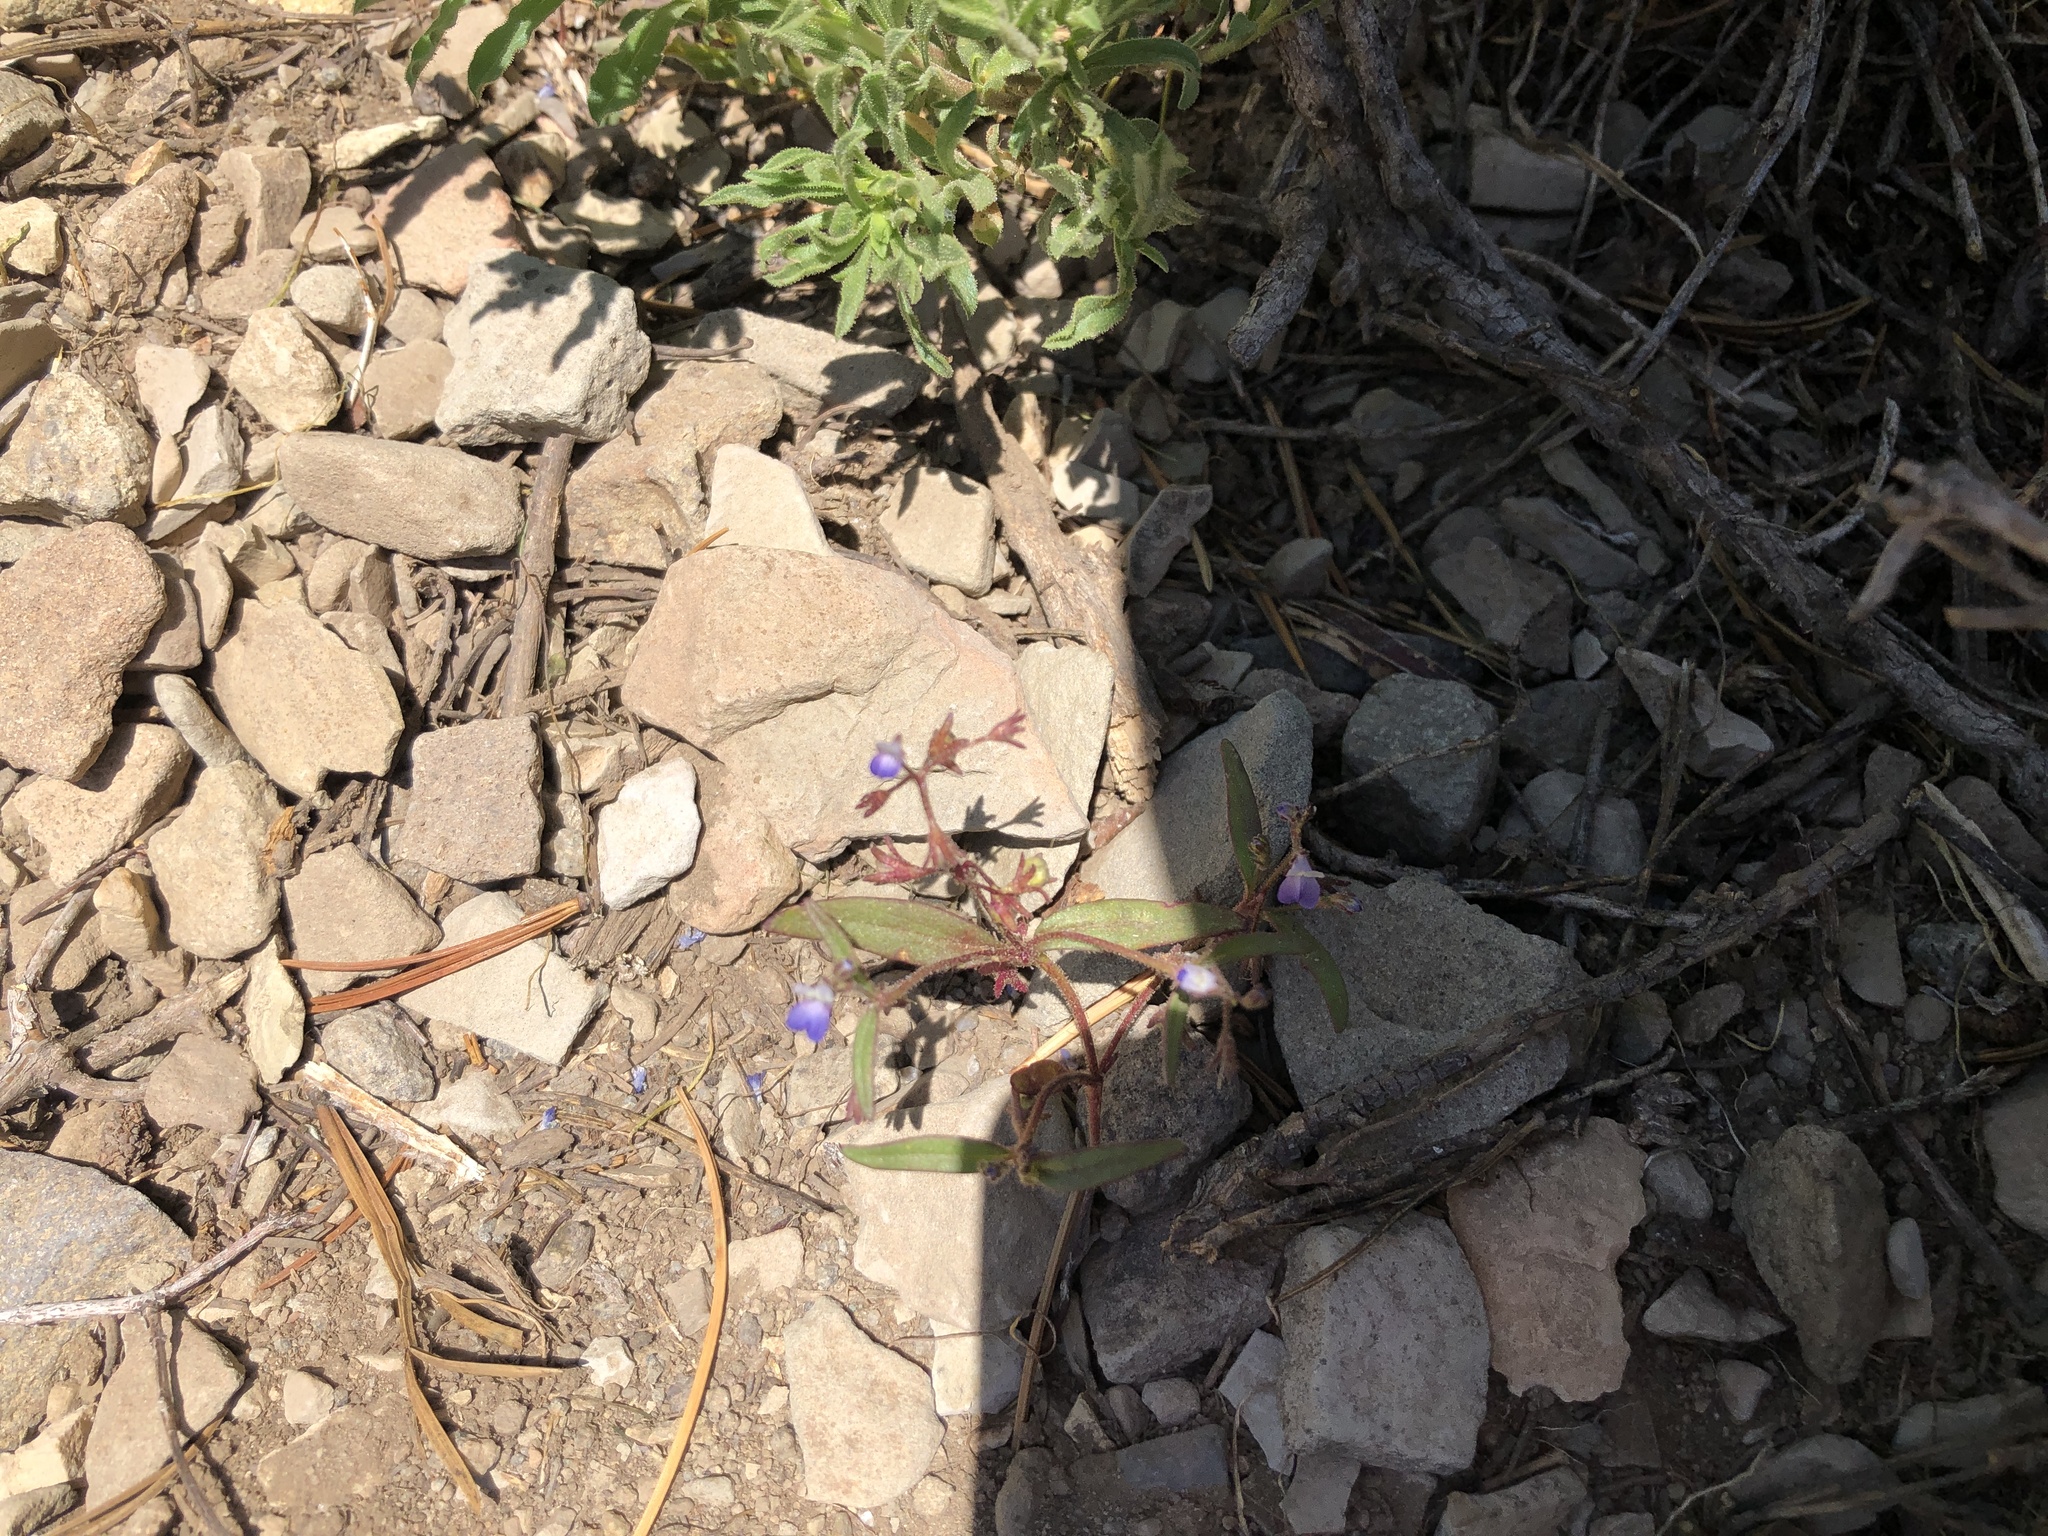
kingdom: Plantae
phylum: Tracheophyta
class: Magnoliopsida
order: Lamiales
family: Plantaginaceae
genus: Collinsia
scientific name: Collinsia torreyi
